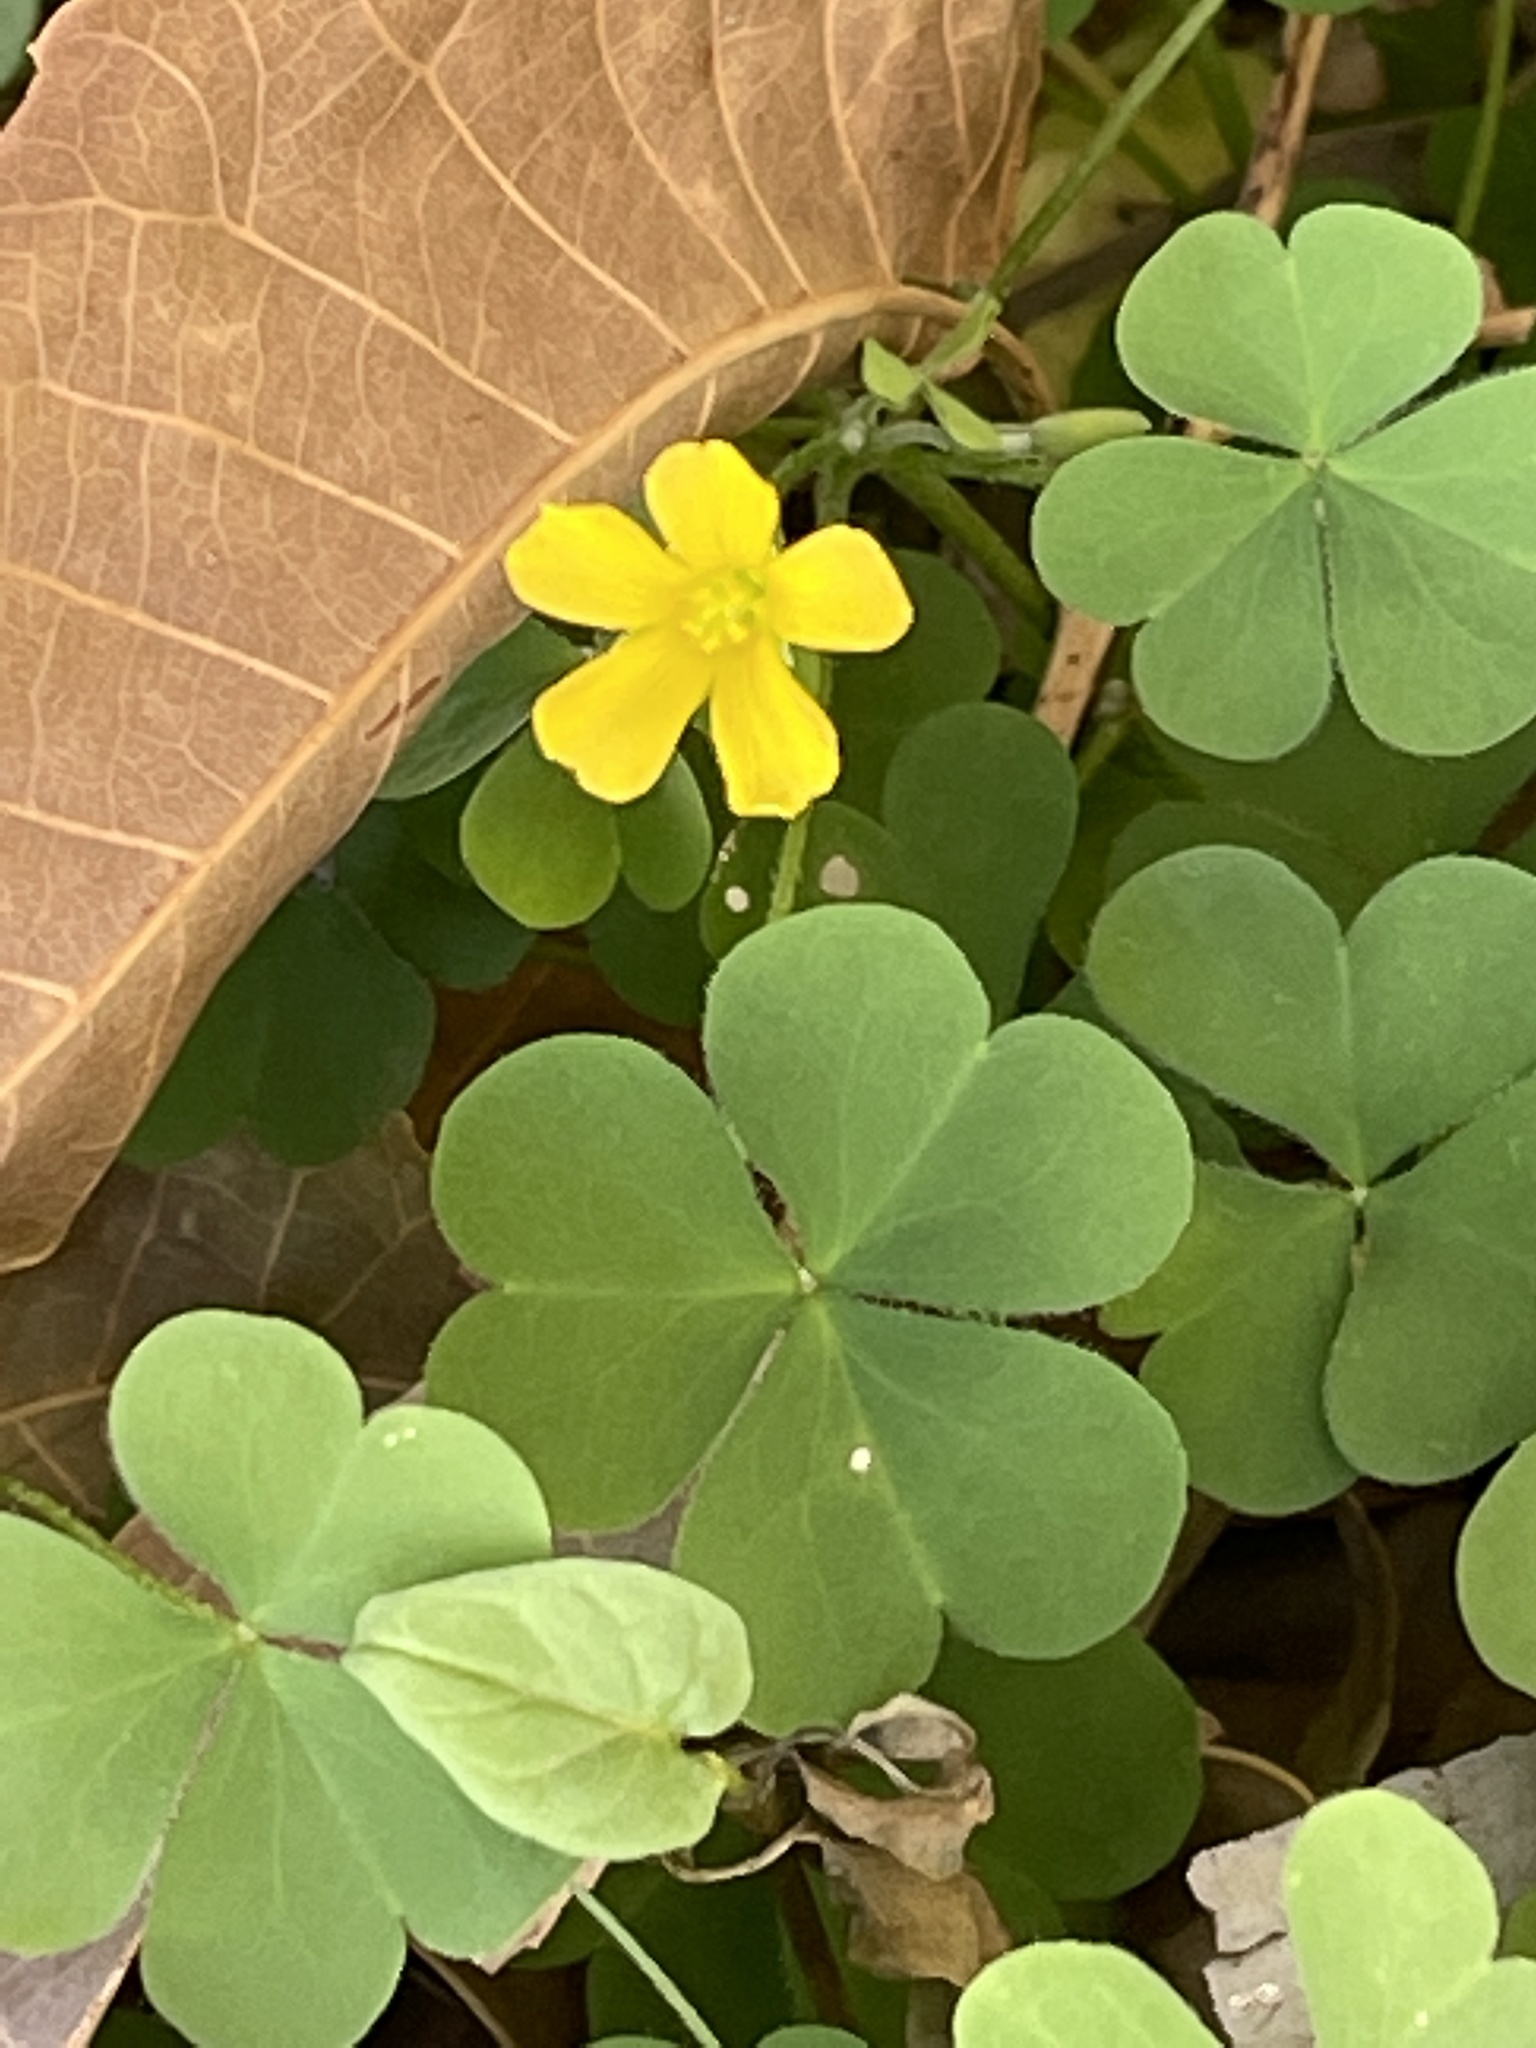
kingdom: Plantae
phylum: Tracheophyta
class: Magnoliopsida
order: Oxalidales
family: Oxalidaceae
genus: Oxalis
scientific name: Oxalis corniculata
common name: Procumbent yellow-sorrel
